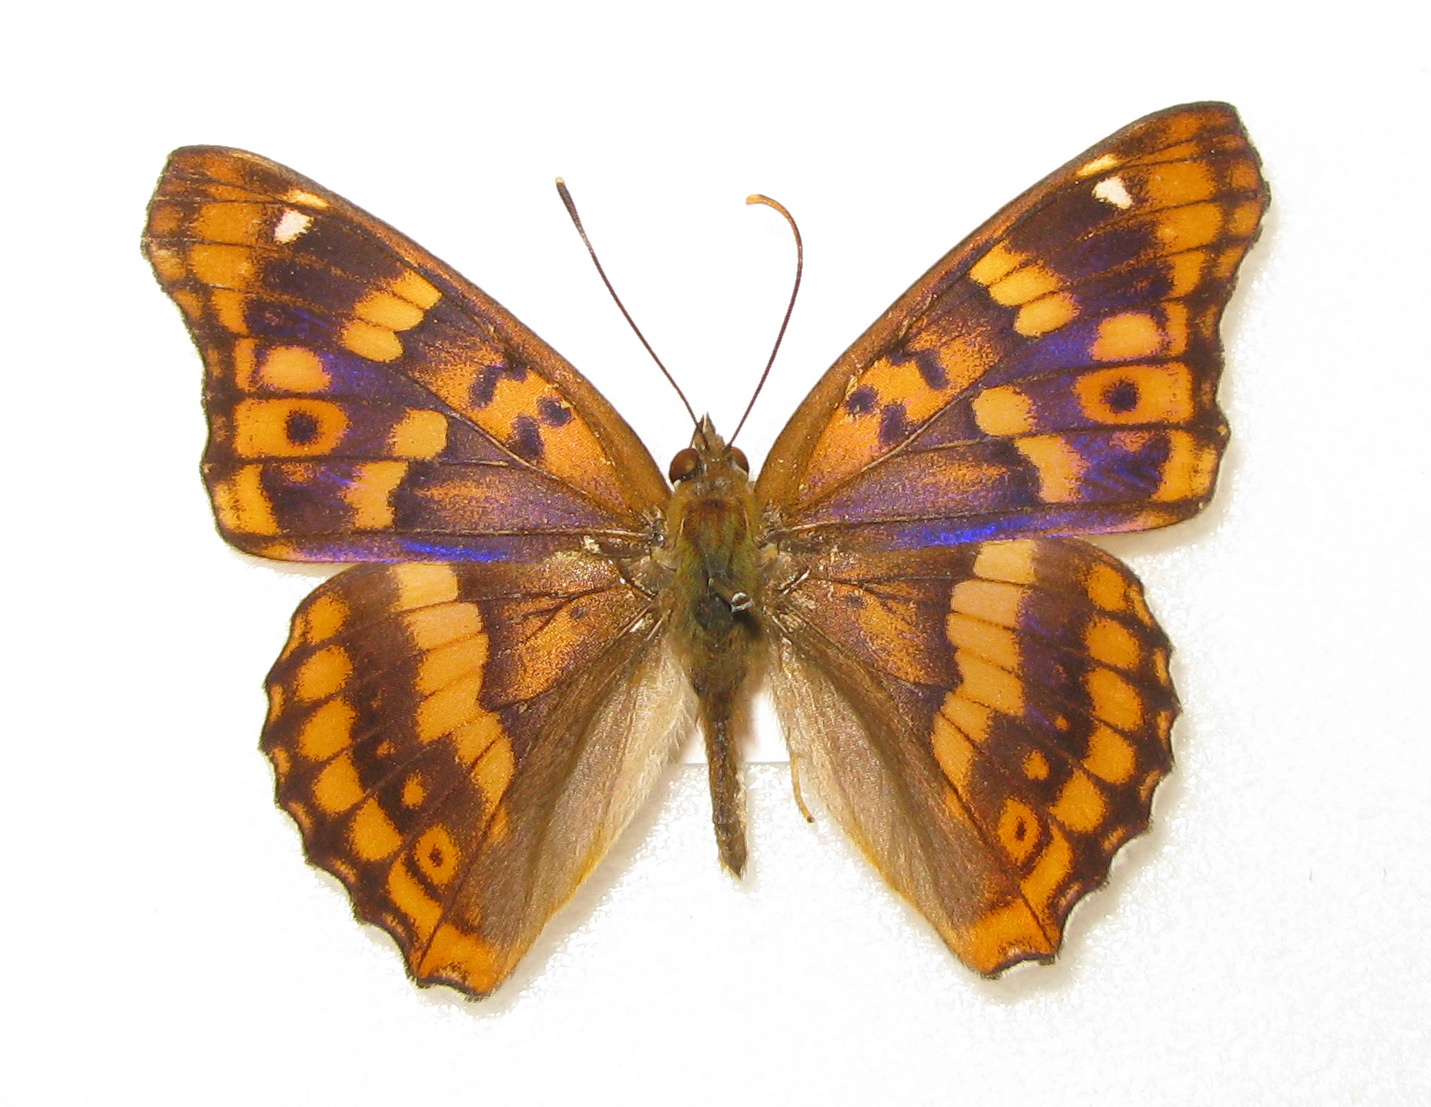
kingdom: Animalia
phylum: Arthropoda
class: Insecta
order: Lepidoptera
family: Nymphalidae
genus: Apatura
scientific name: Apatura ilia
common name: Lesser purple emperor
